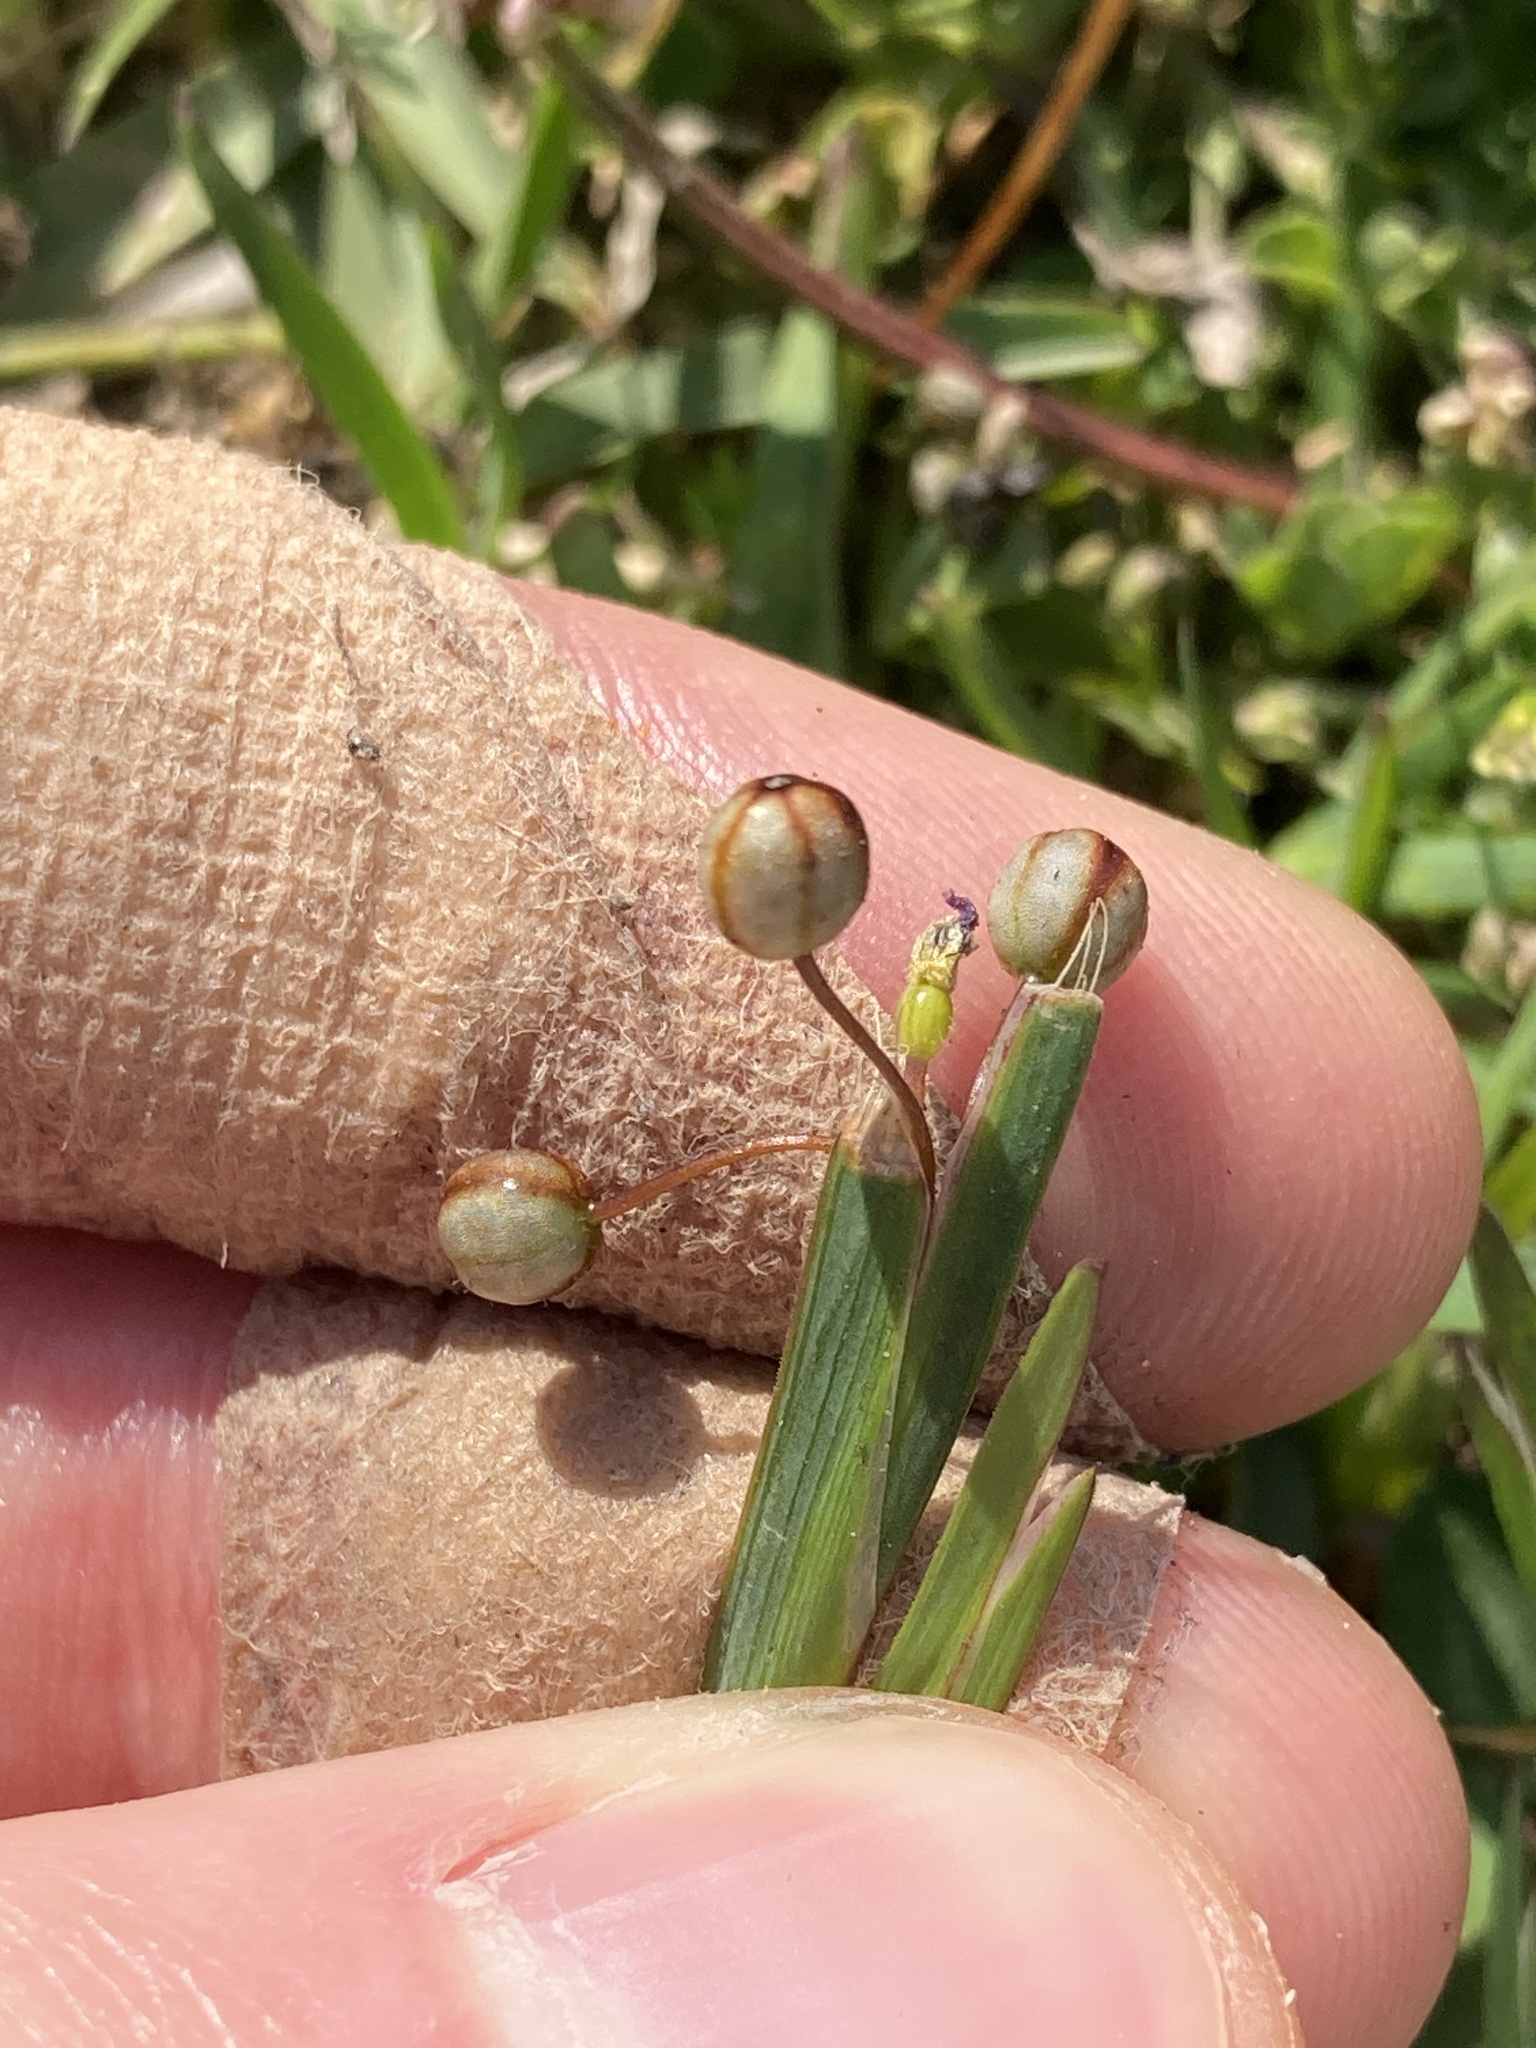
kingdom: Plantae
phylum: Tracheophyta
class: Liliopsida
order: Asparagales
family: Iridaceae
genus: Sisyrinchium
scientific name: Sisyrinchium micranthum
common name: Bermuda pigroot
